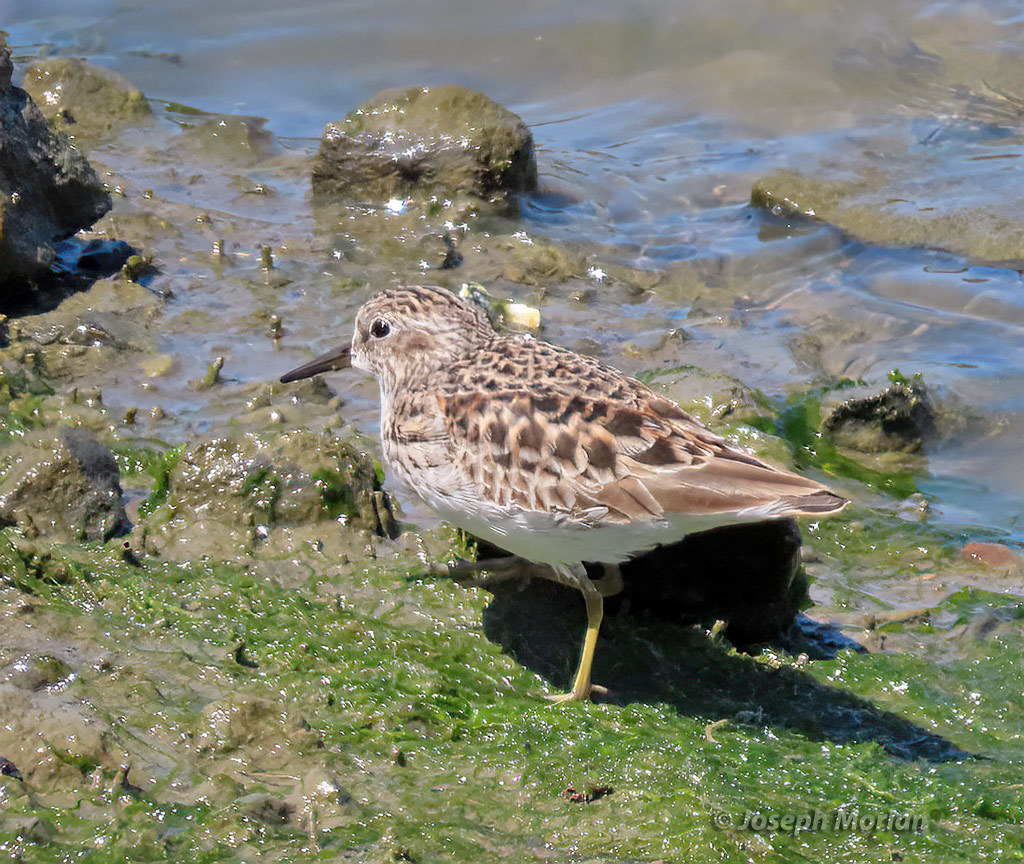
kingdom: Animalia
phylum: Chordata
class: Aves
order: Charadriiformes
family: Scolopacidae
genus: Calidris
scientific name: Calidris minutilla
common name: Least sandpiper
